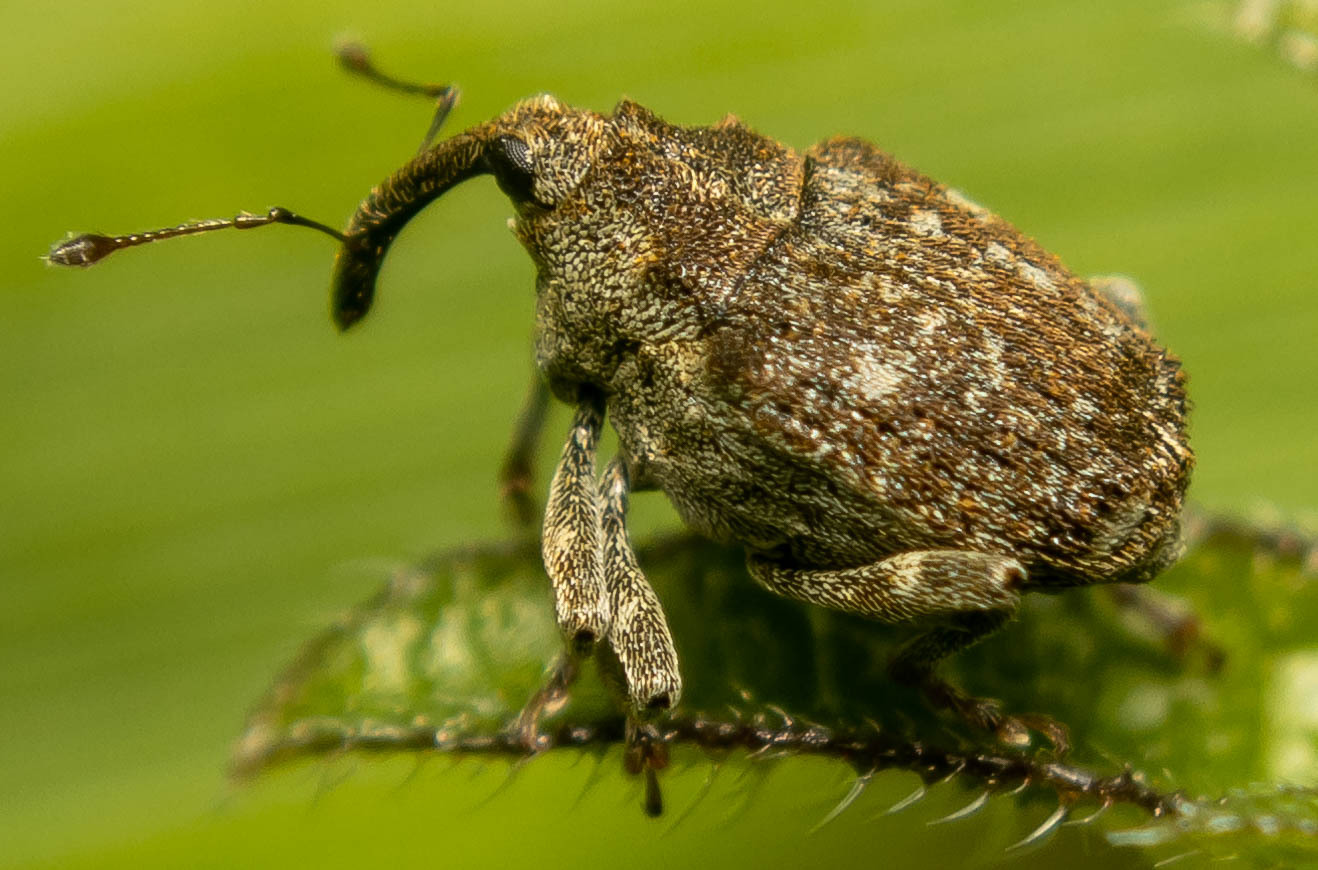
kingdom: Animalia
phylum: Arthropoda
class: Insecta
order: Coleoptera
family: Curculionidae
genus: Parethelcus
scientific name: Parethelcus pollinarius
